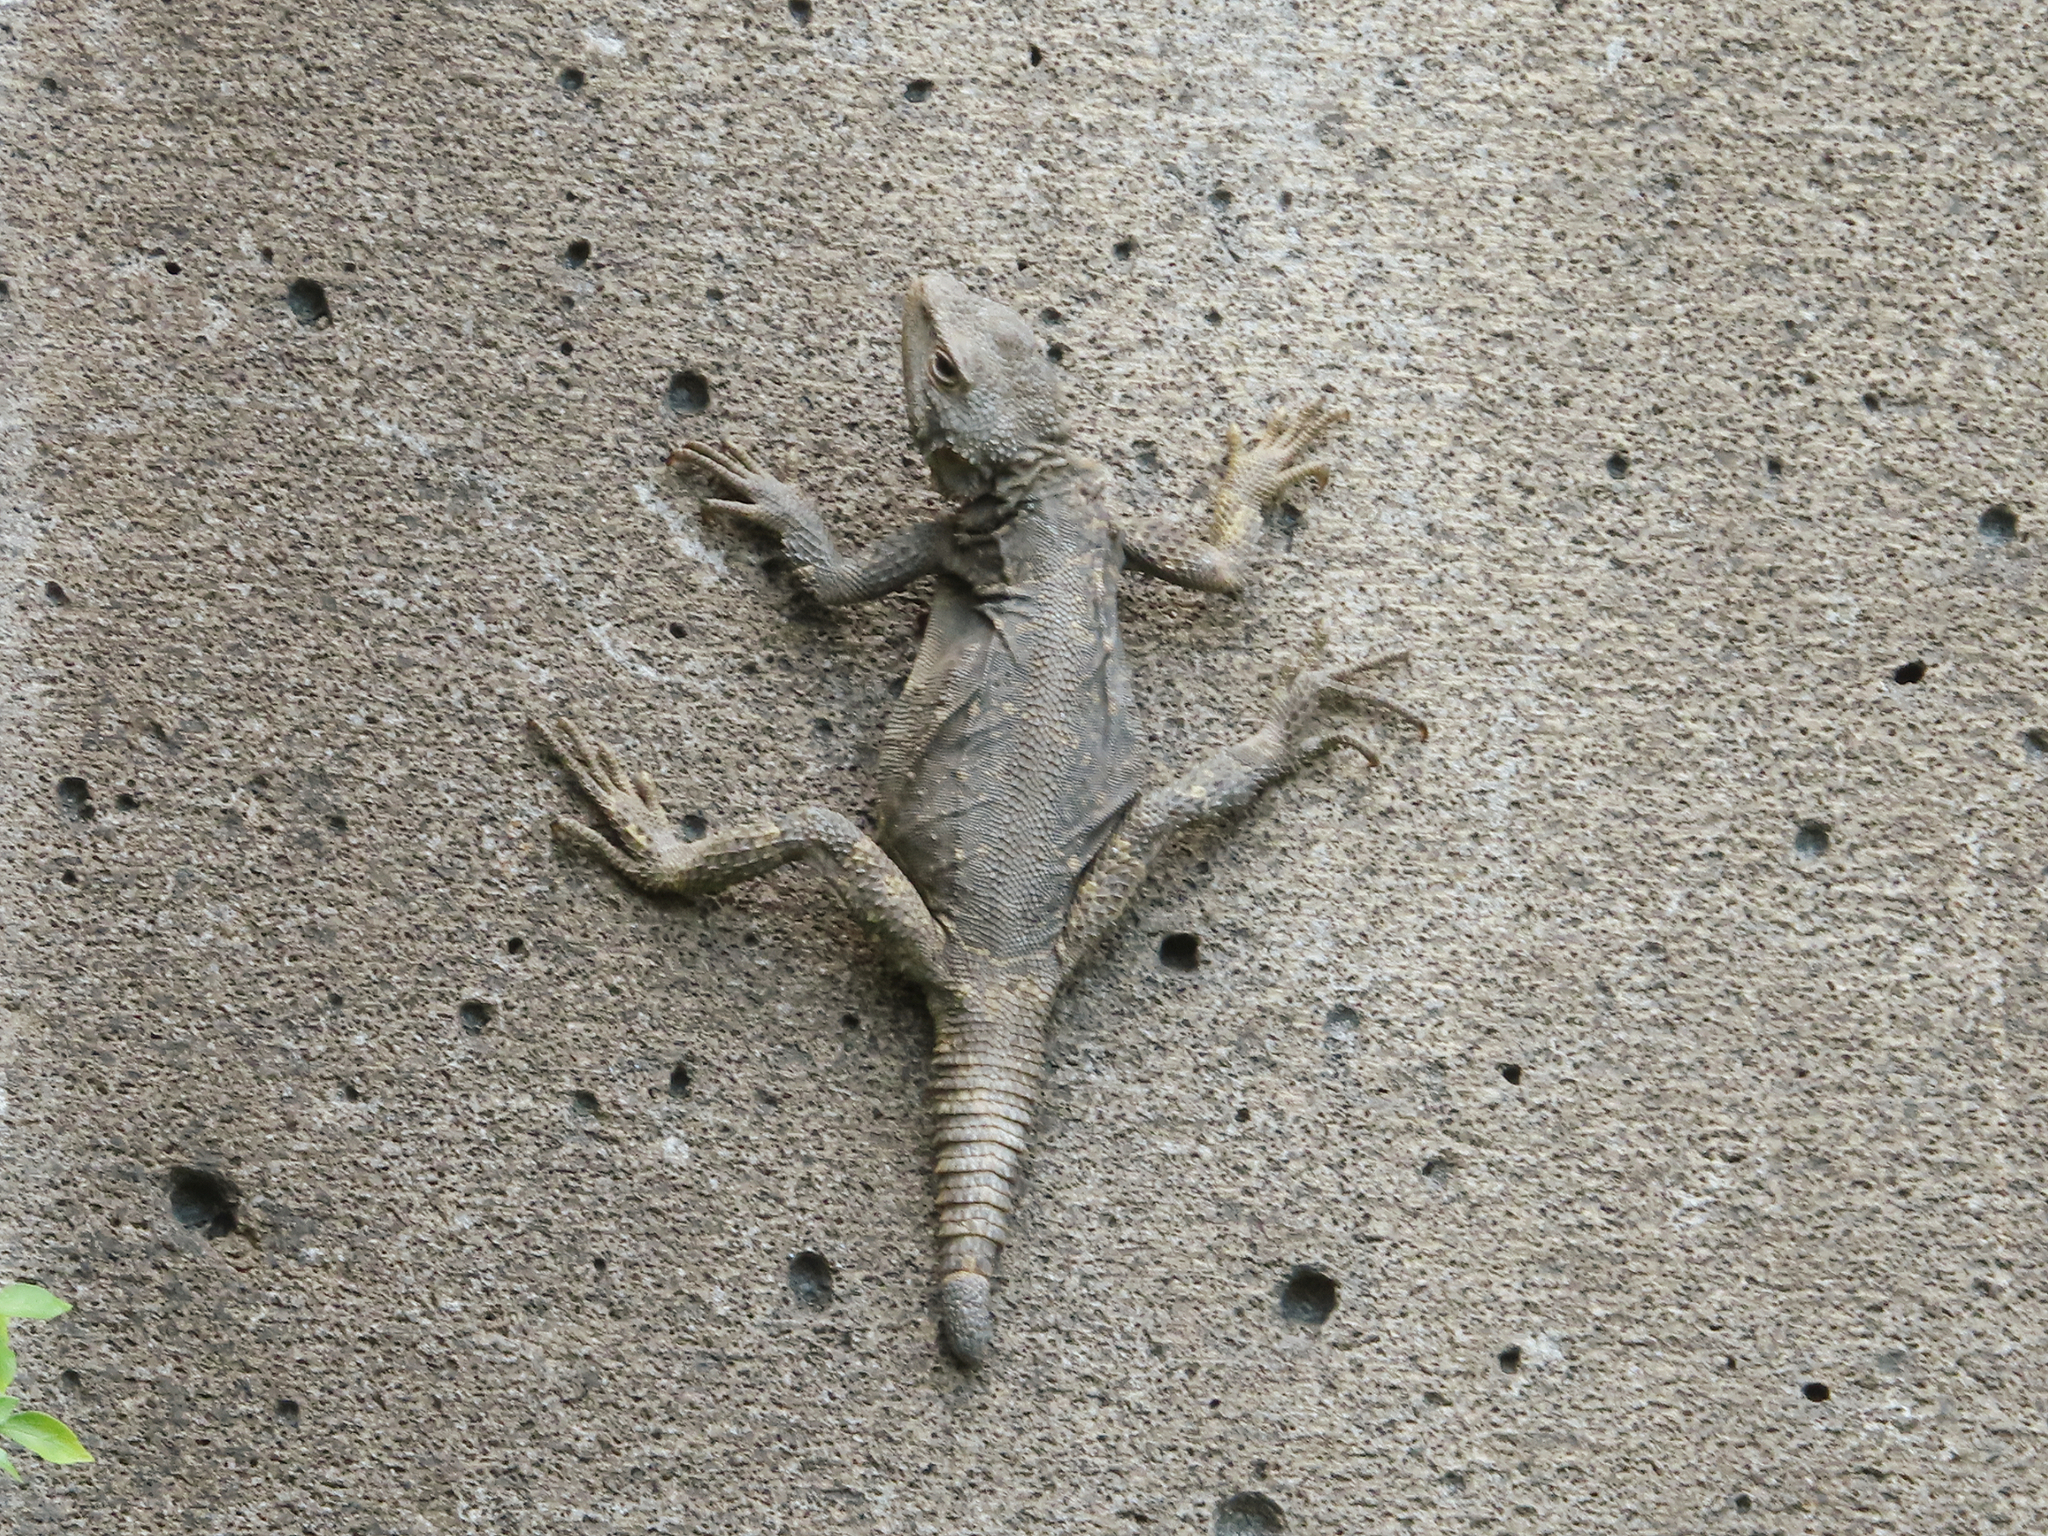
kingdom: Animalia
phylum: Chordata
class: Squamata
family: Agamidae
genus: Paralaudakia
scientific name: Paralaudakia caucasia
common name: Caucasian agama
